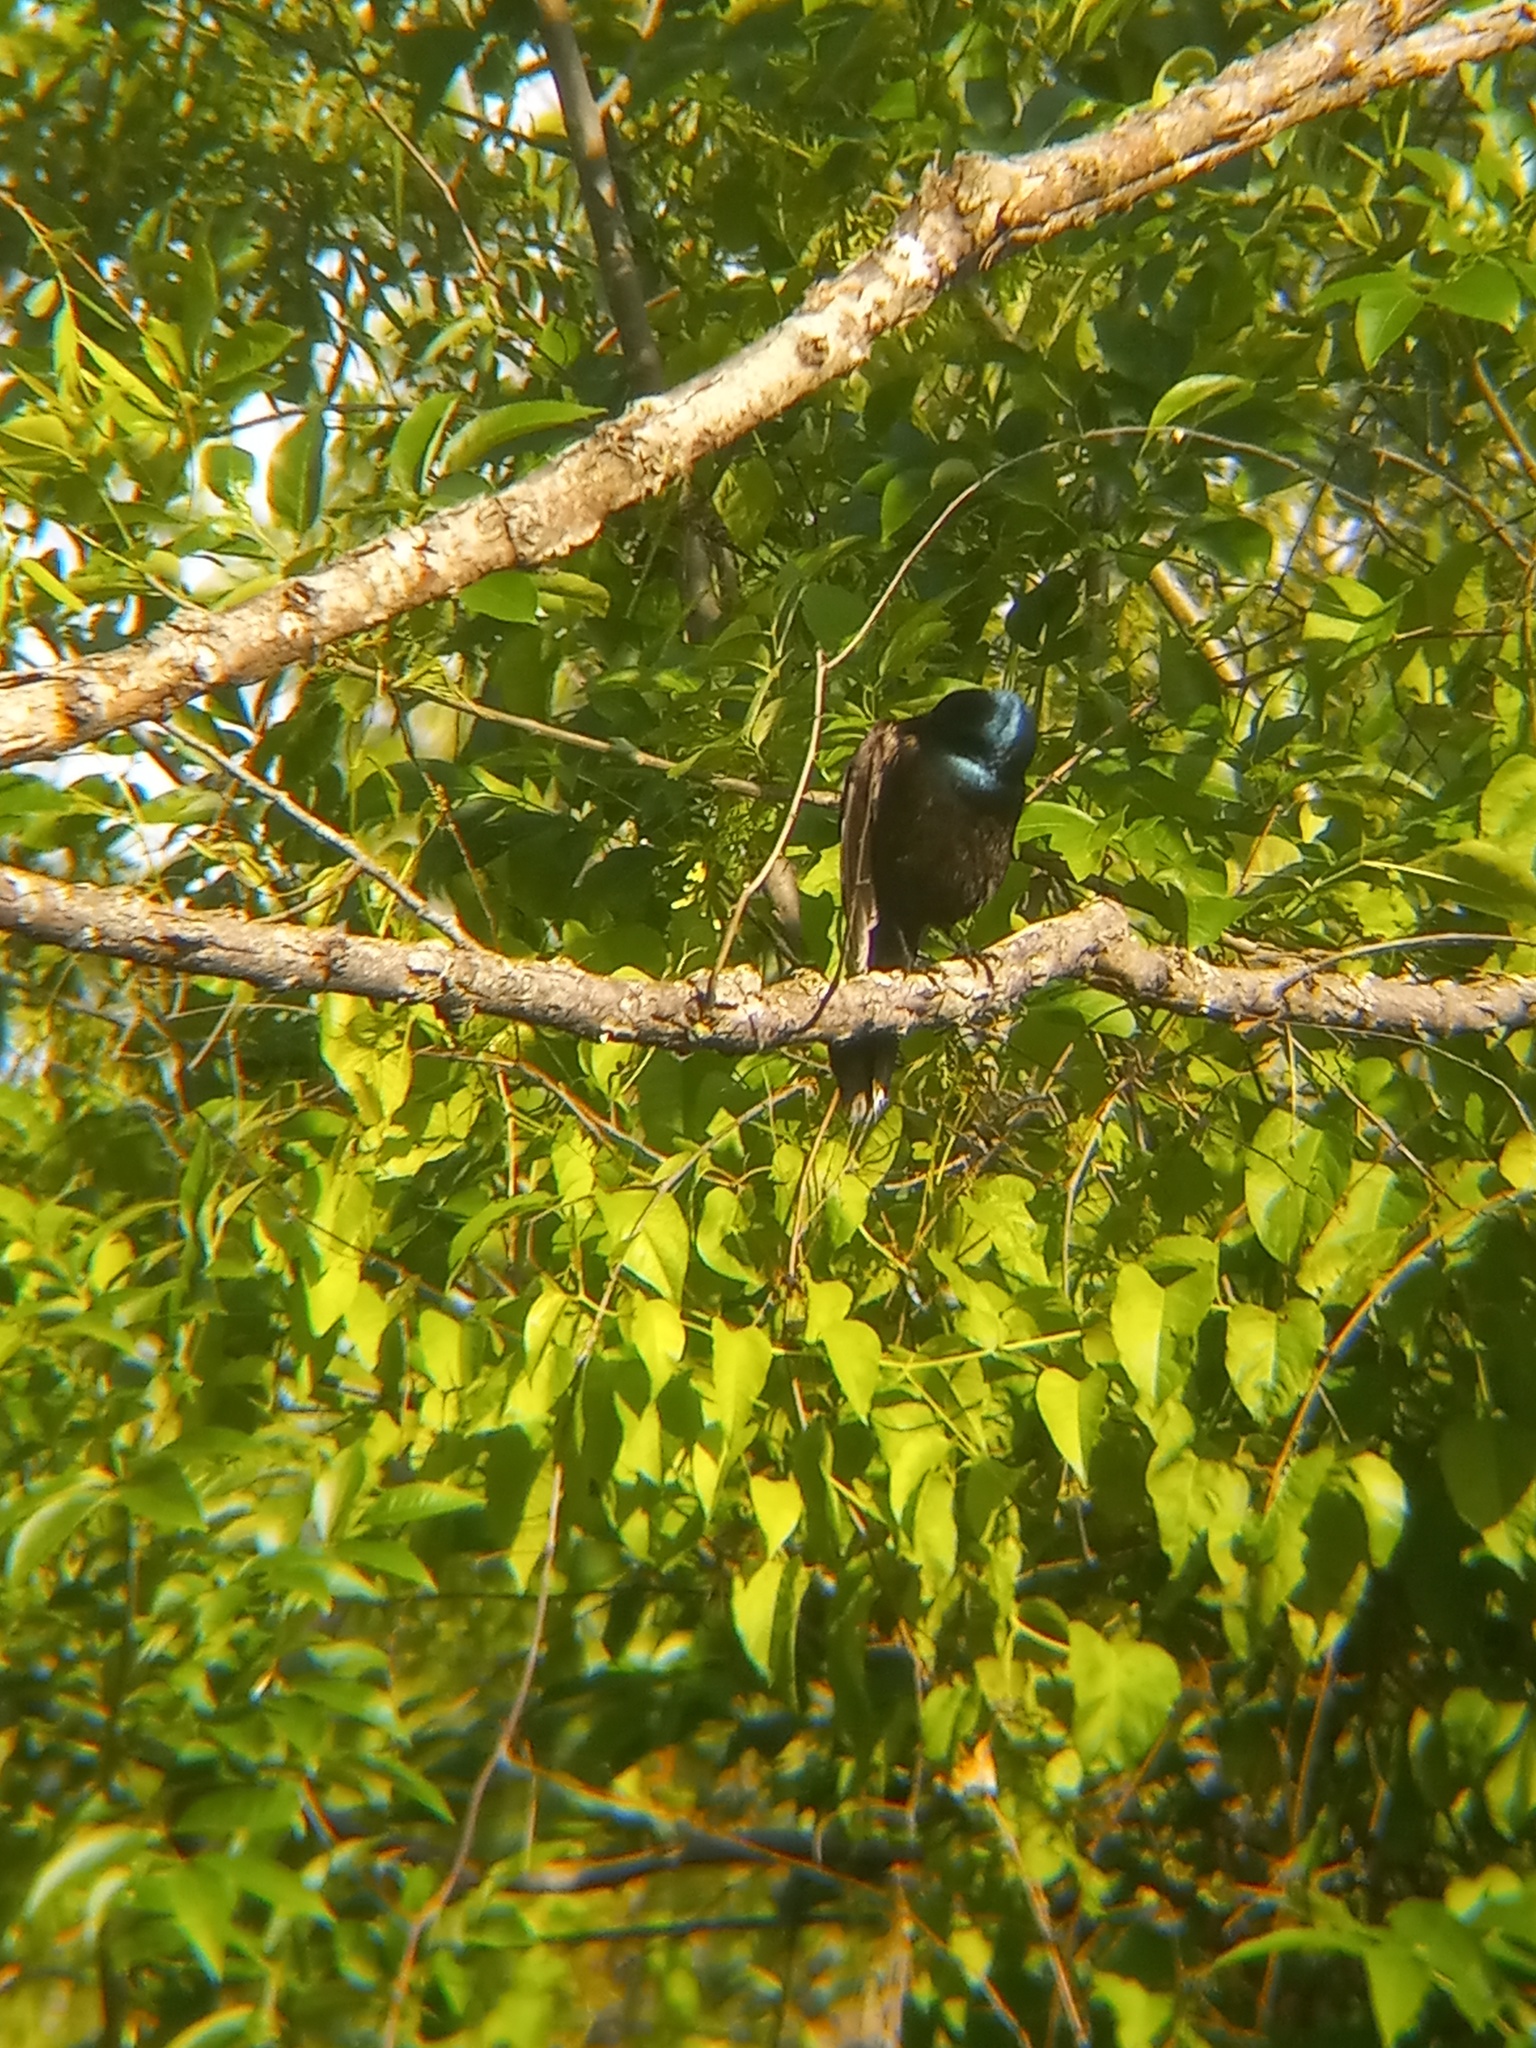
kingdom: Animalia
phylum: Chordata
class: Aves
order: Passeriformes
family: Icteridae
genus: Quiscalus
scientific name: Quiscalus quiscula
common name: Common grackle
